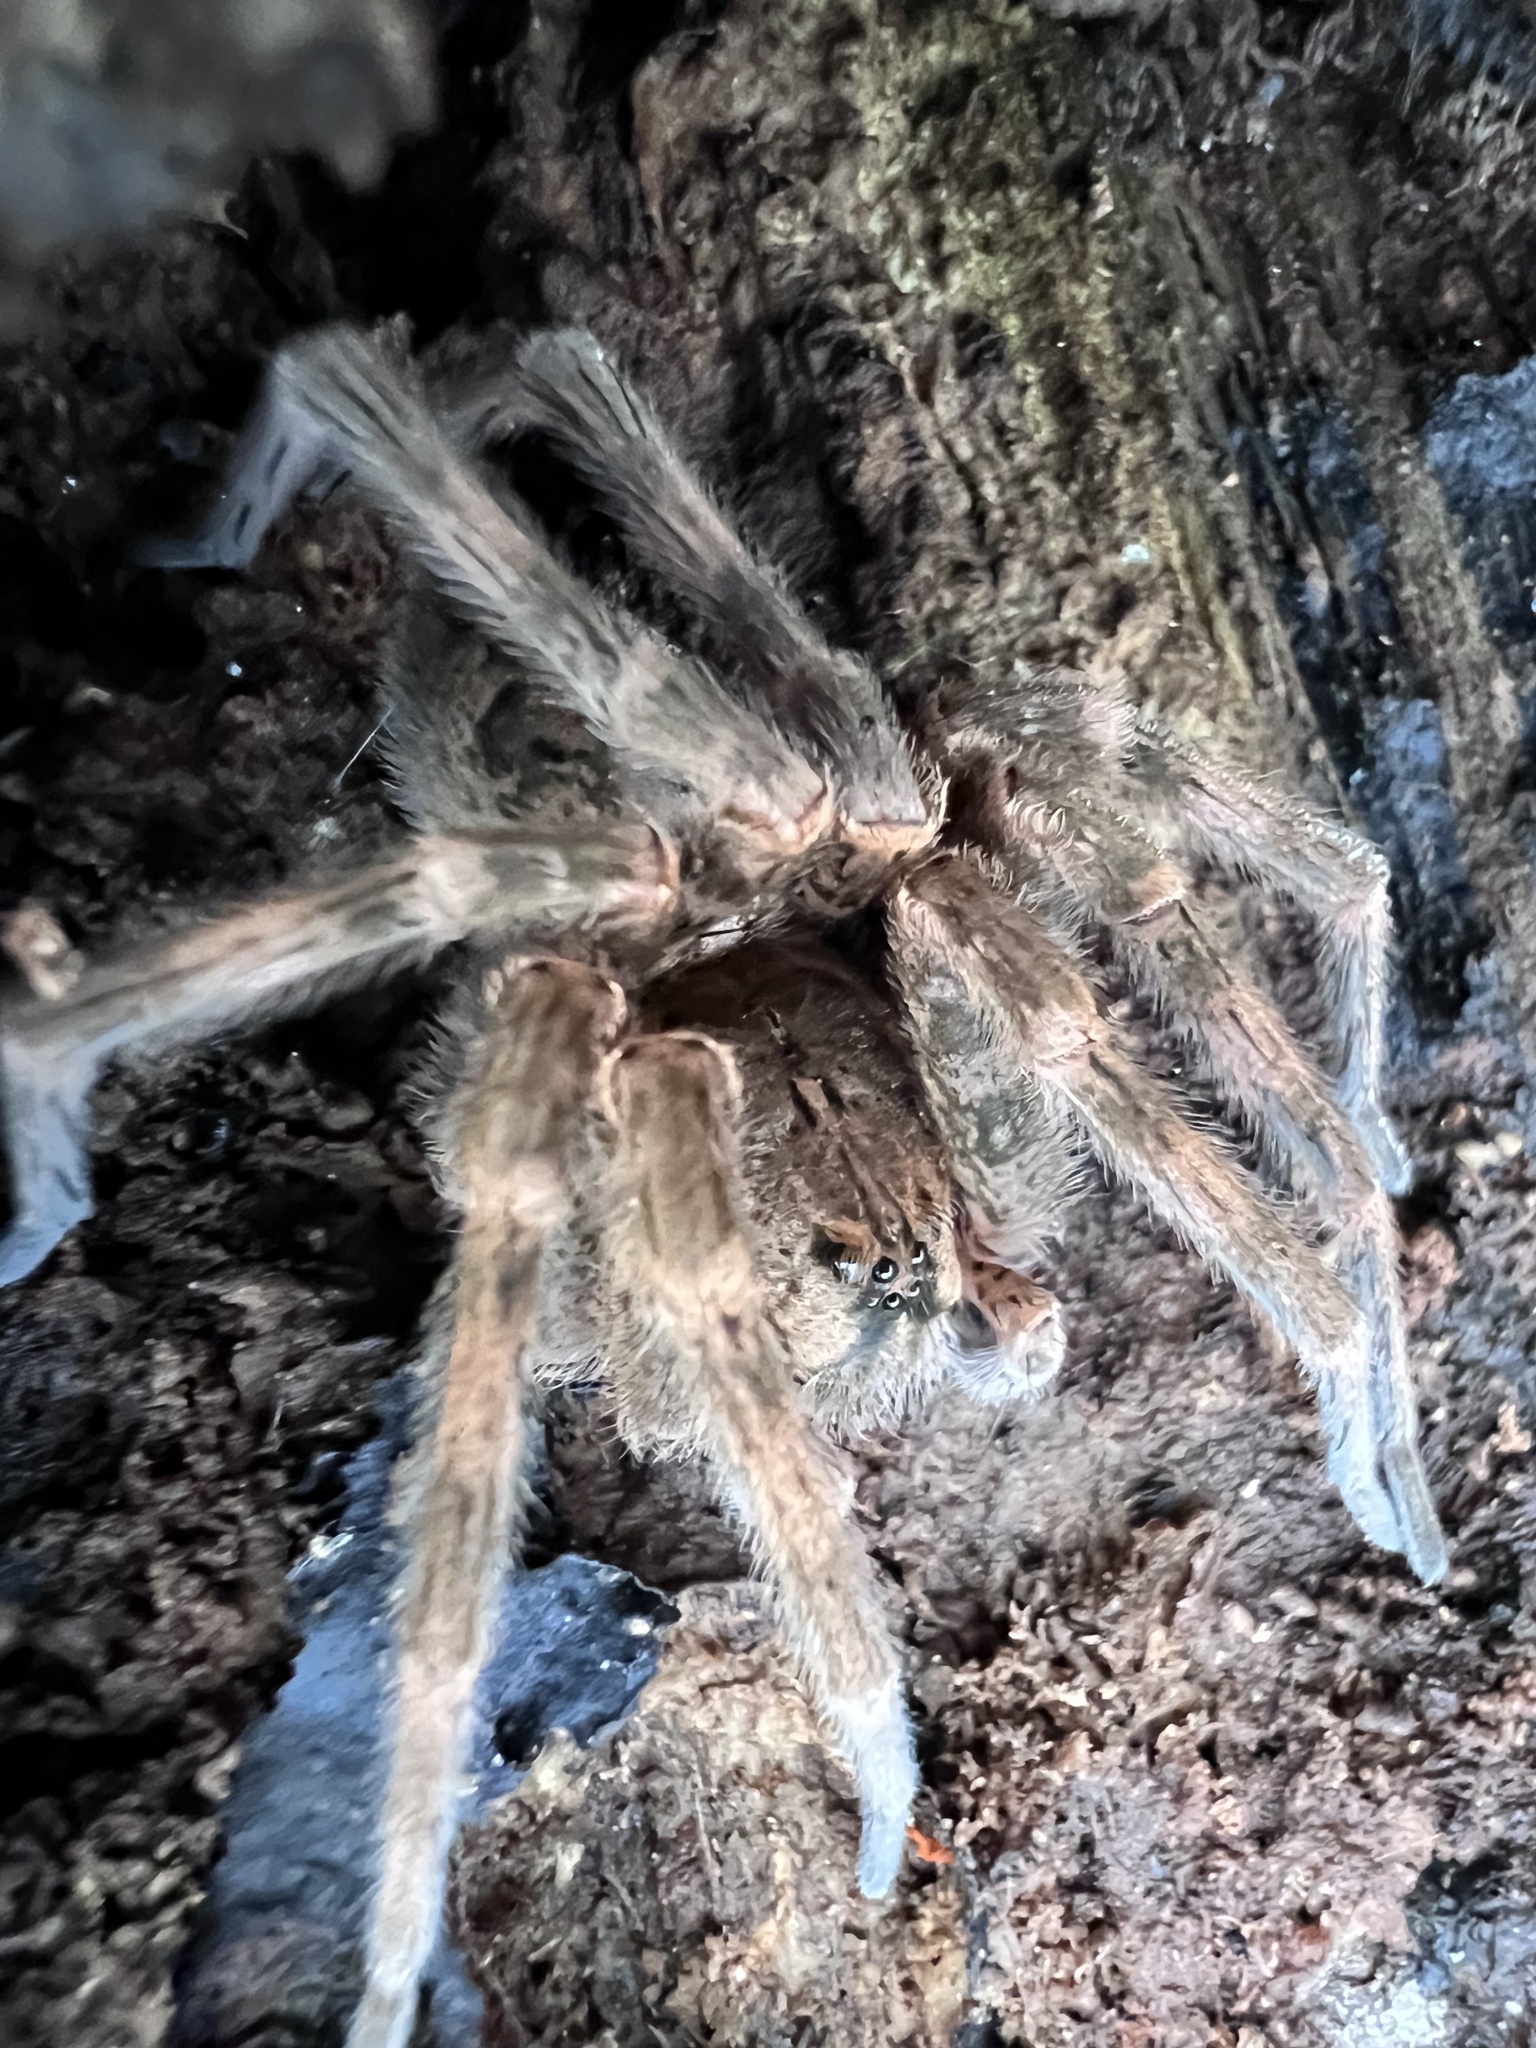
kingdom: Animalia
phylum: Arthropoda
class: Arachnida
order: Araneae
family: Pisauridae
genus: Dolomedes
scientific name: Dolomedes tenebrosus
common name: Dark fishing spider
